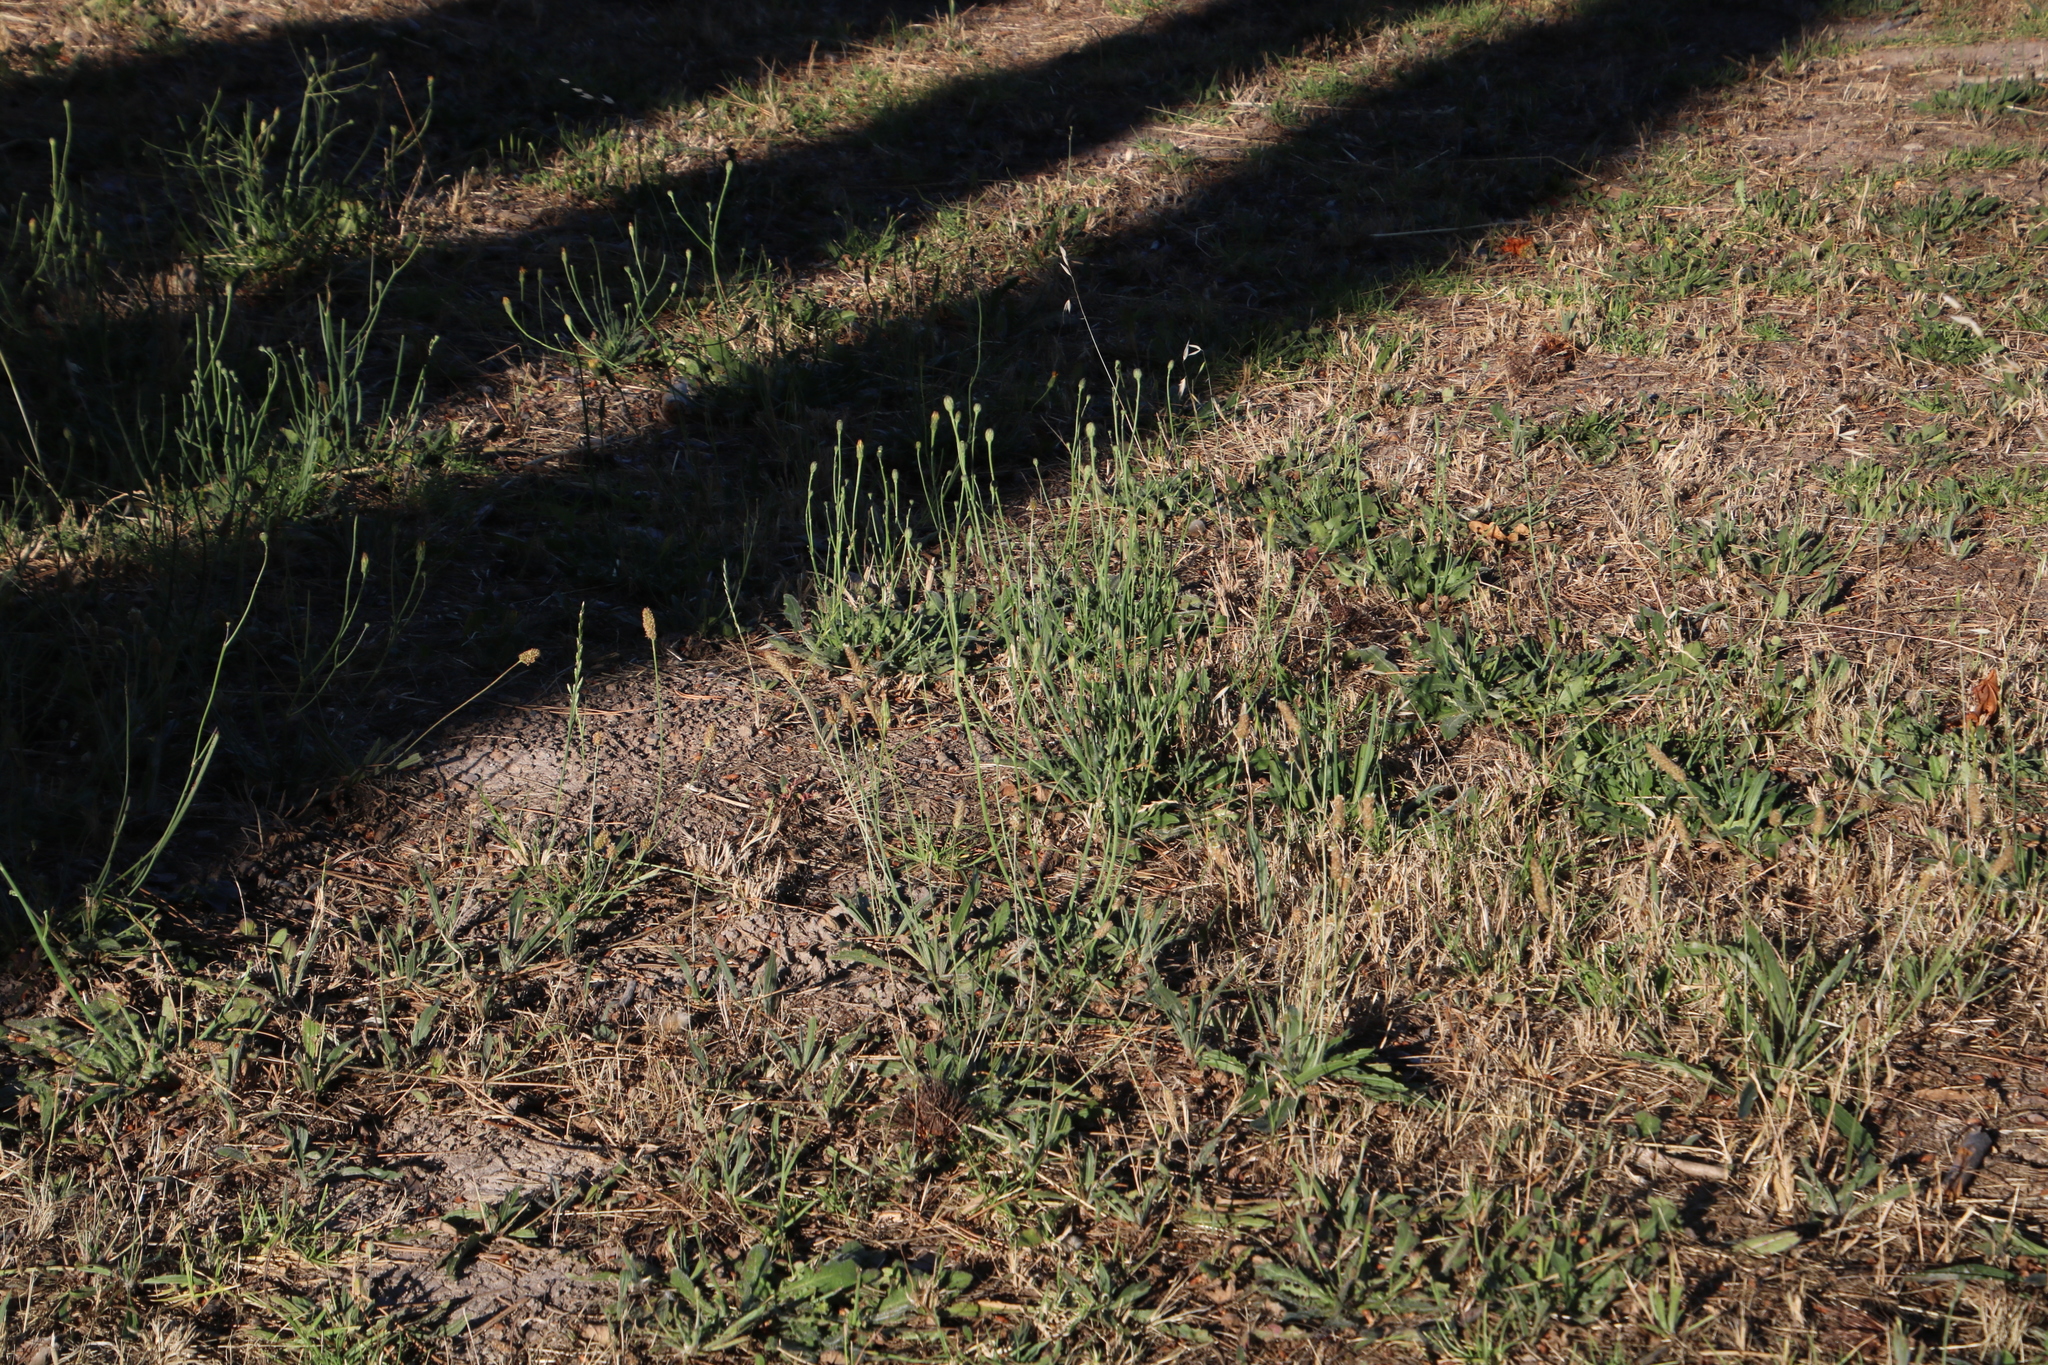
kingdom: Plantae
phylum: Tracheophyta
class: Magnoliopsida
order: Asterales
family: Asteraceae
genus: Hypochaeris
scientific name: Hypochaeris radicata
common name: Flatweed
